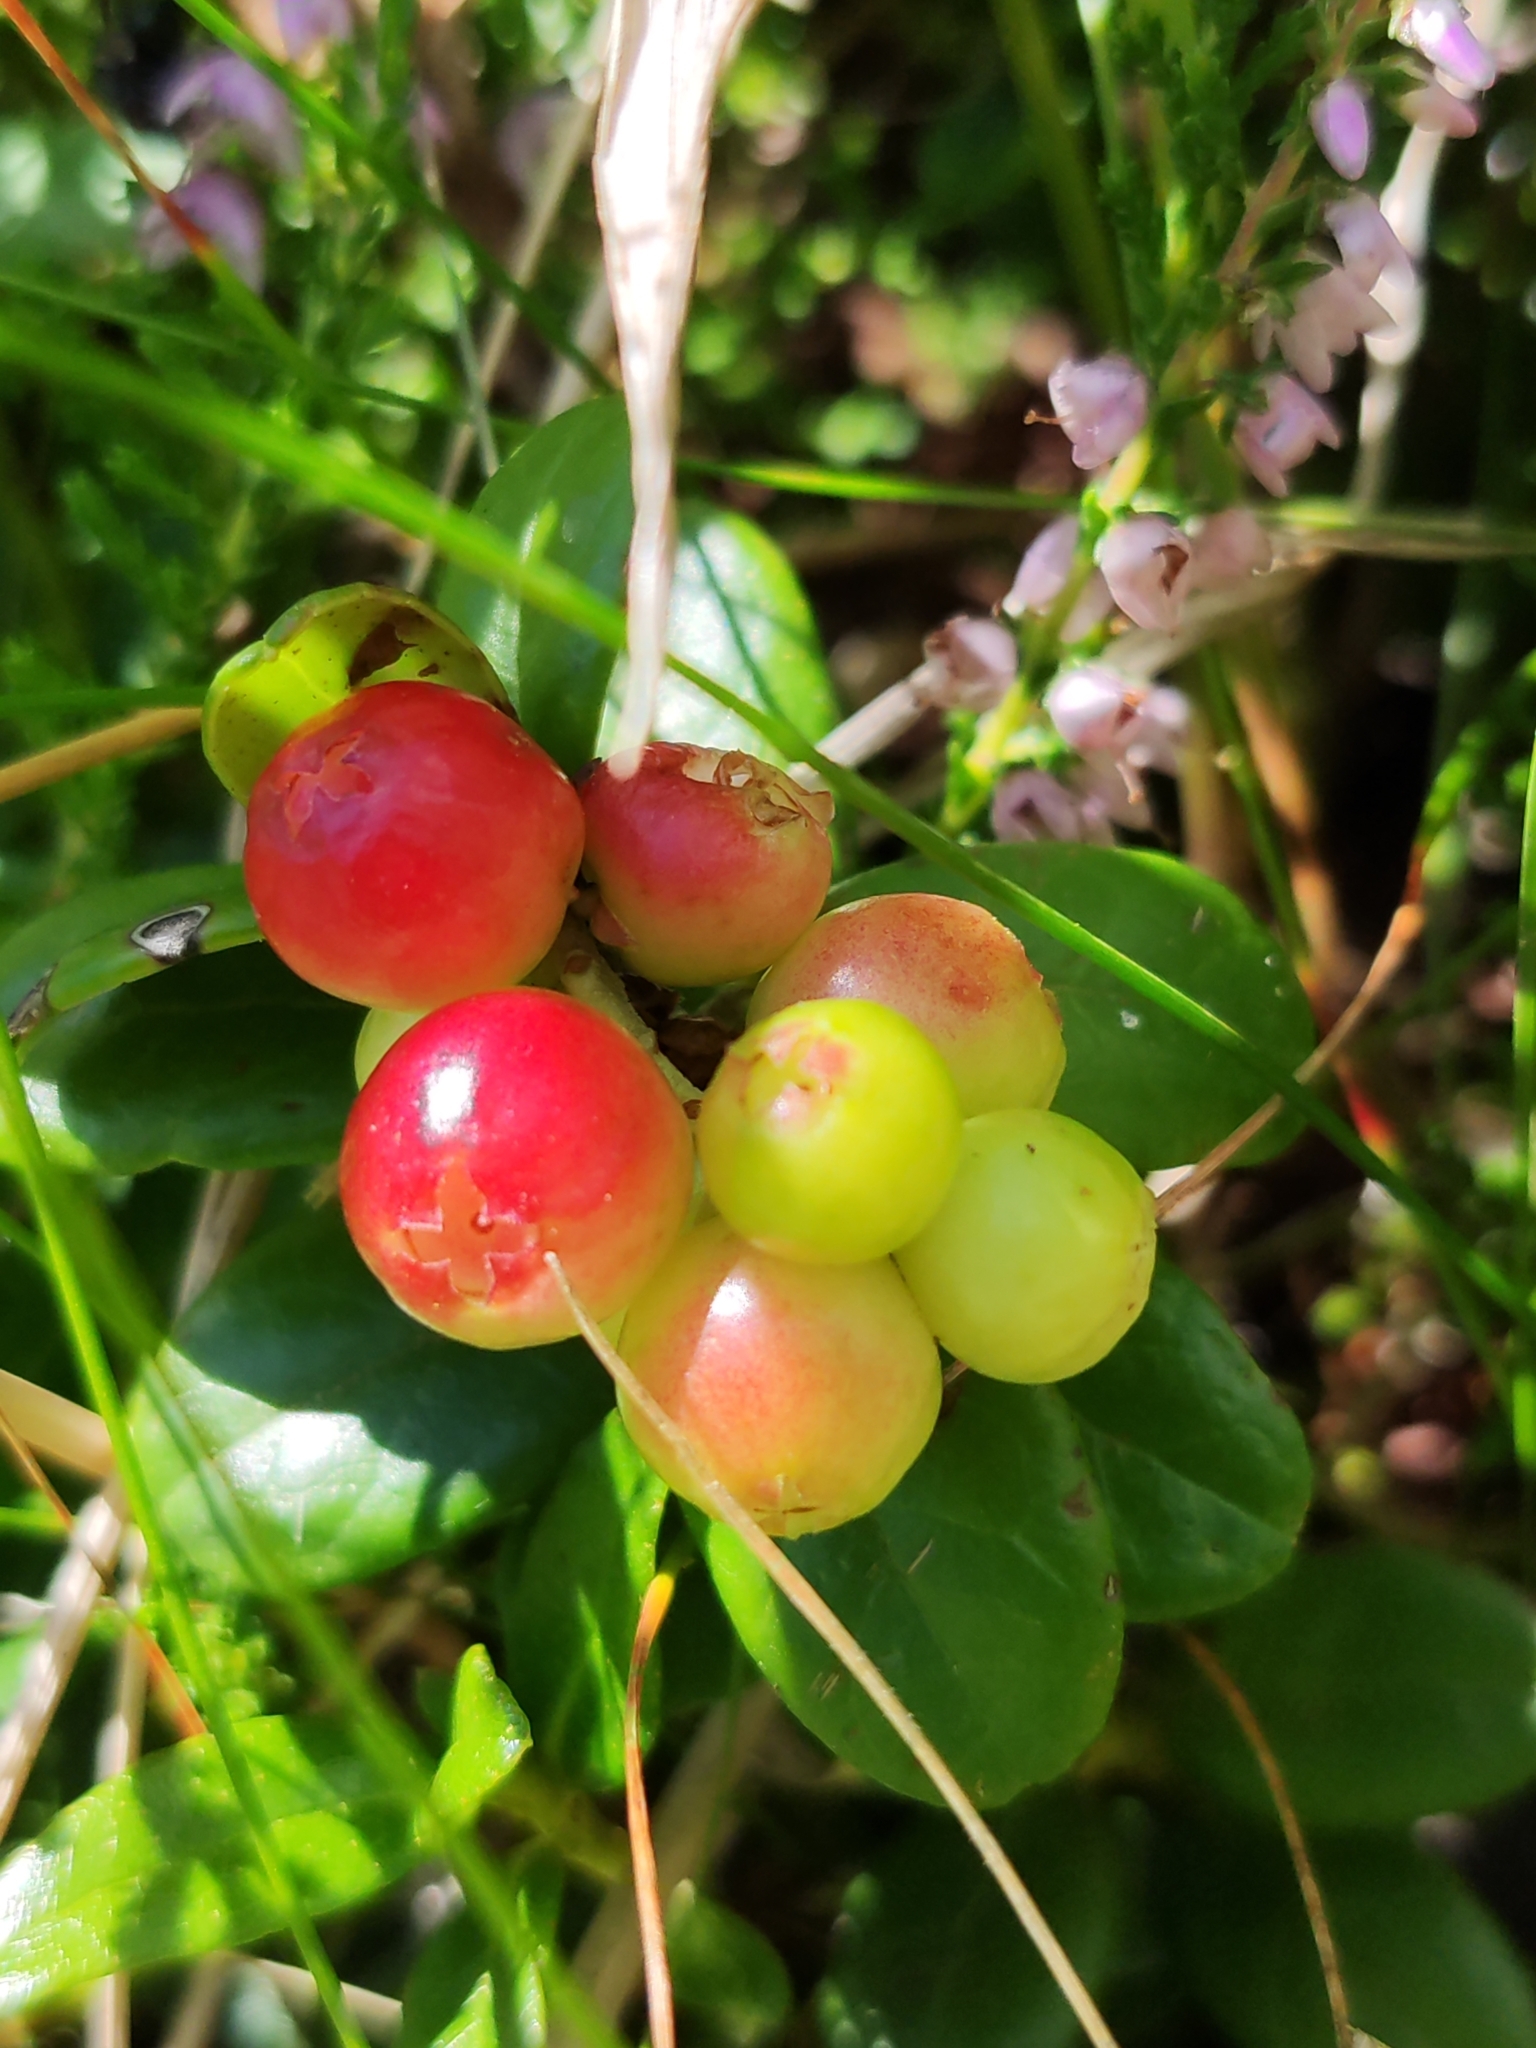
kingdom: Plantae
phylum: Tracheophyta
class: Magnoliopsida
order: Ericales
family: Ericaceae
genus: Vaccinium
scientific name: Vaccinium vitis-idaea
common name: Cowberry
